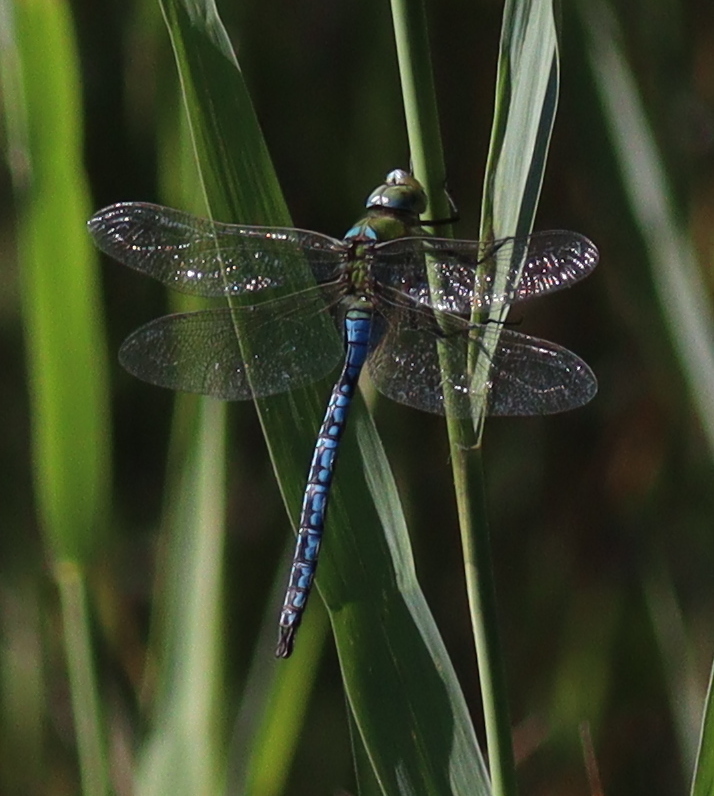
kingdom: Animalia
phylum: Arthropoda
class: Insecta
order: Odonata
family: Aeshnidae
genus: Anax
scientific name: Anax imperator
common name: Emperor dragonfly
